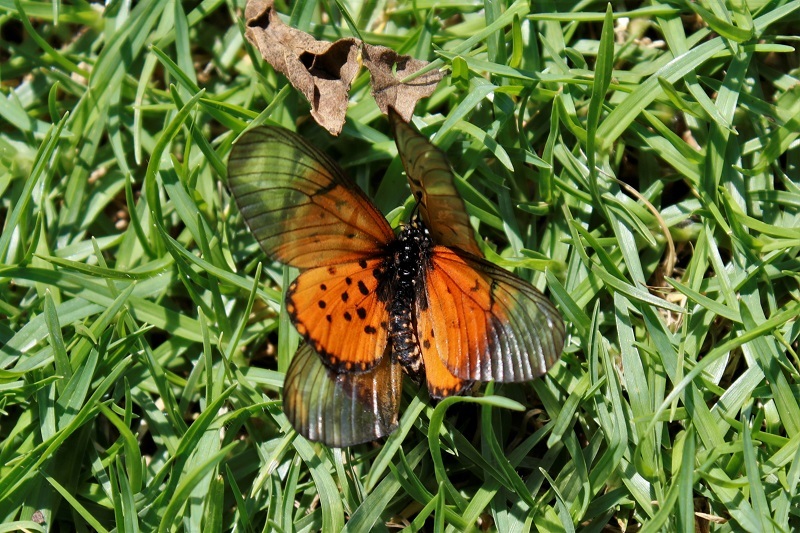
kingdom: Animalia
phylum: Arthropoda
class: Insecta
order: Lepidoptera
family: Nymphalidae
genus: Acraea
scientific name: Acraea horta
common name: Garden acraea
